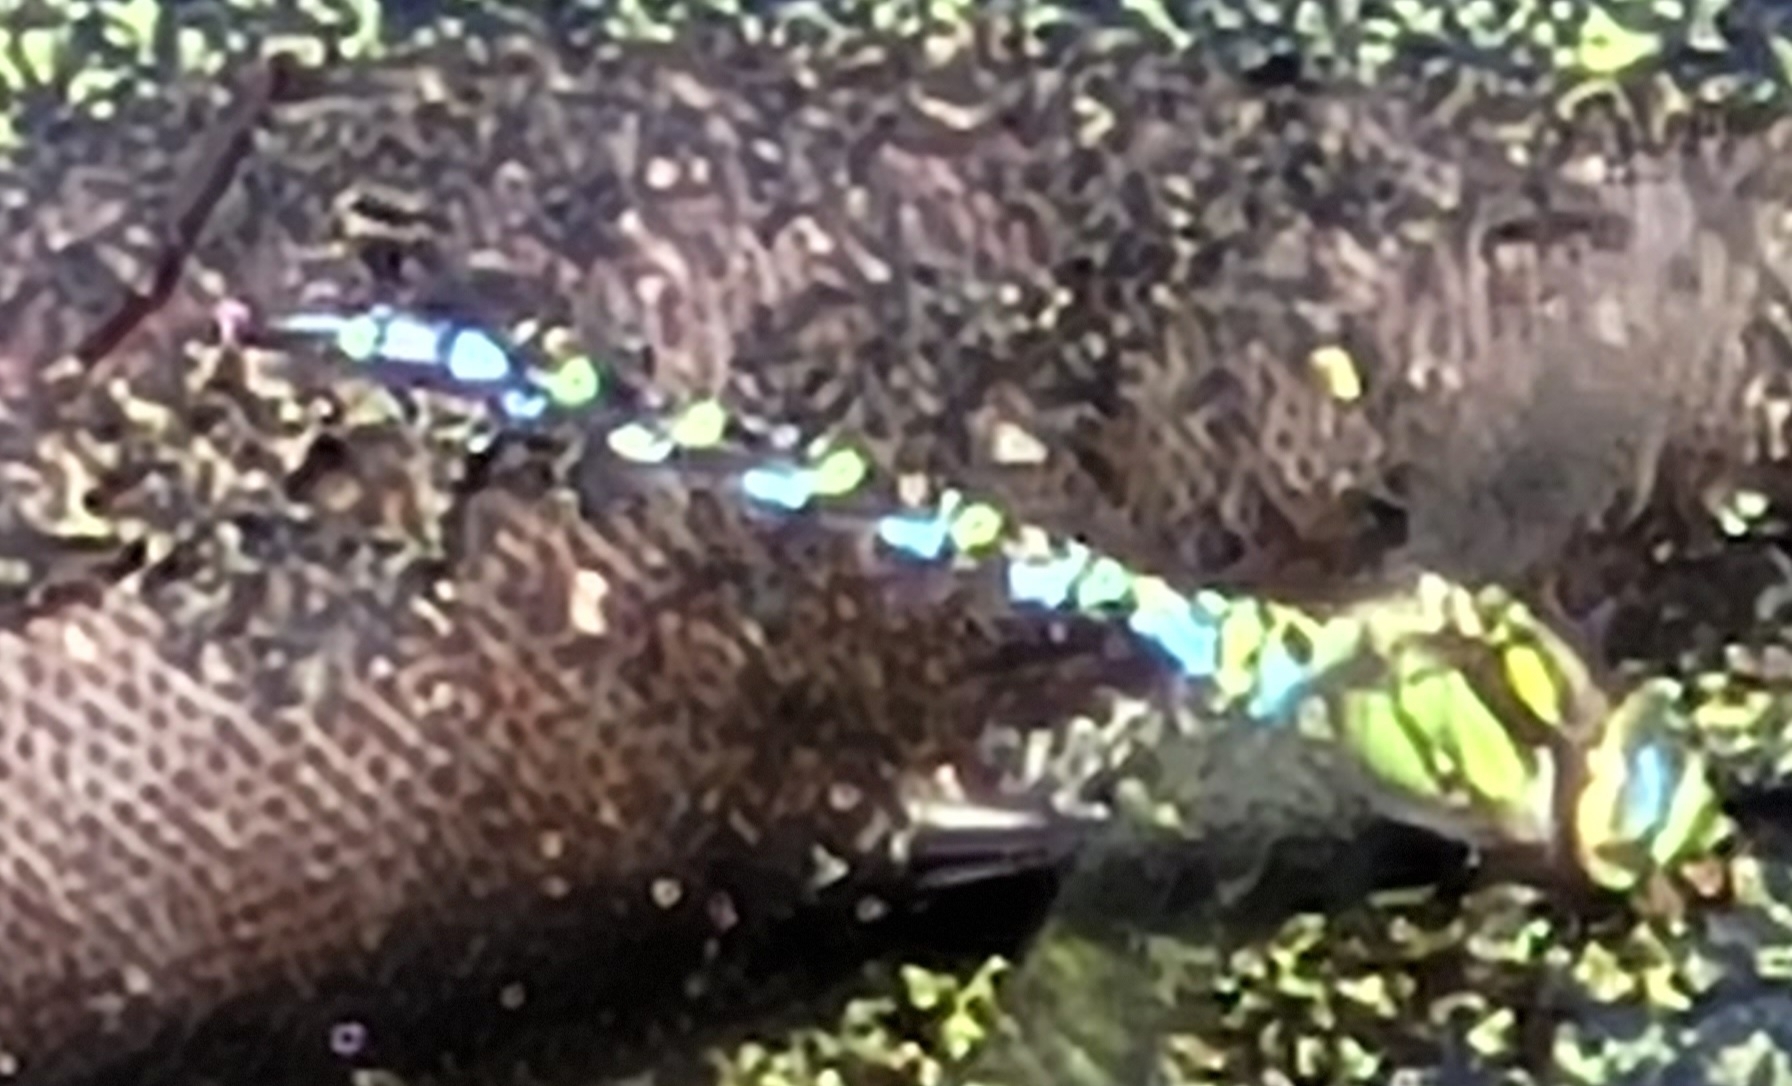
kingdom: Animalia
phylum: Arthropoda
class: Insecta
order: Odonata
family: Aeshnidae
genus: Aeshna
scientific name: Aeshna cyanea
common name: Southern hawker
